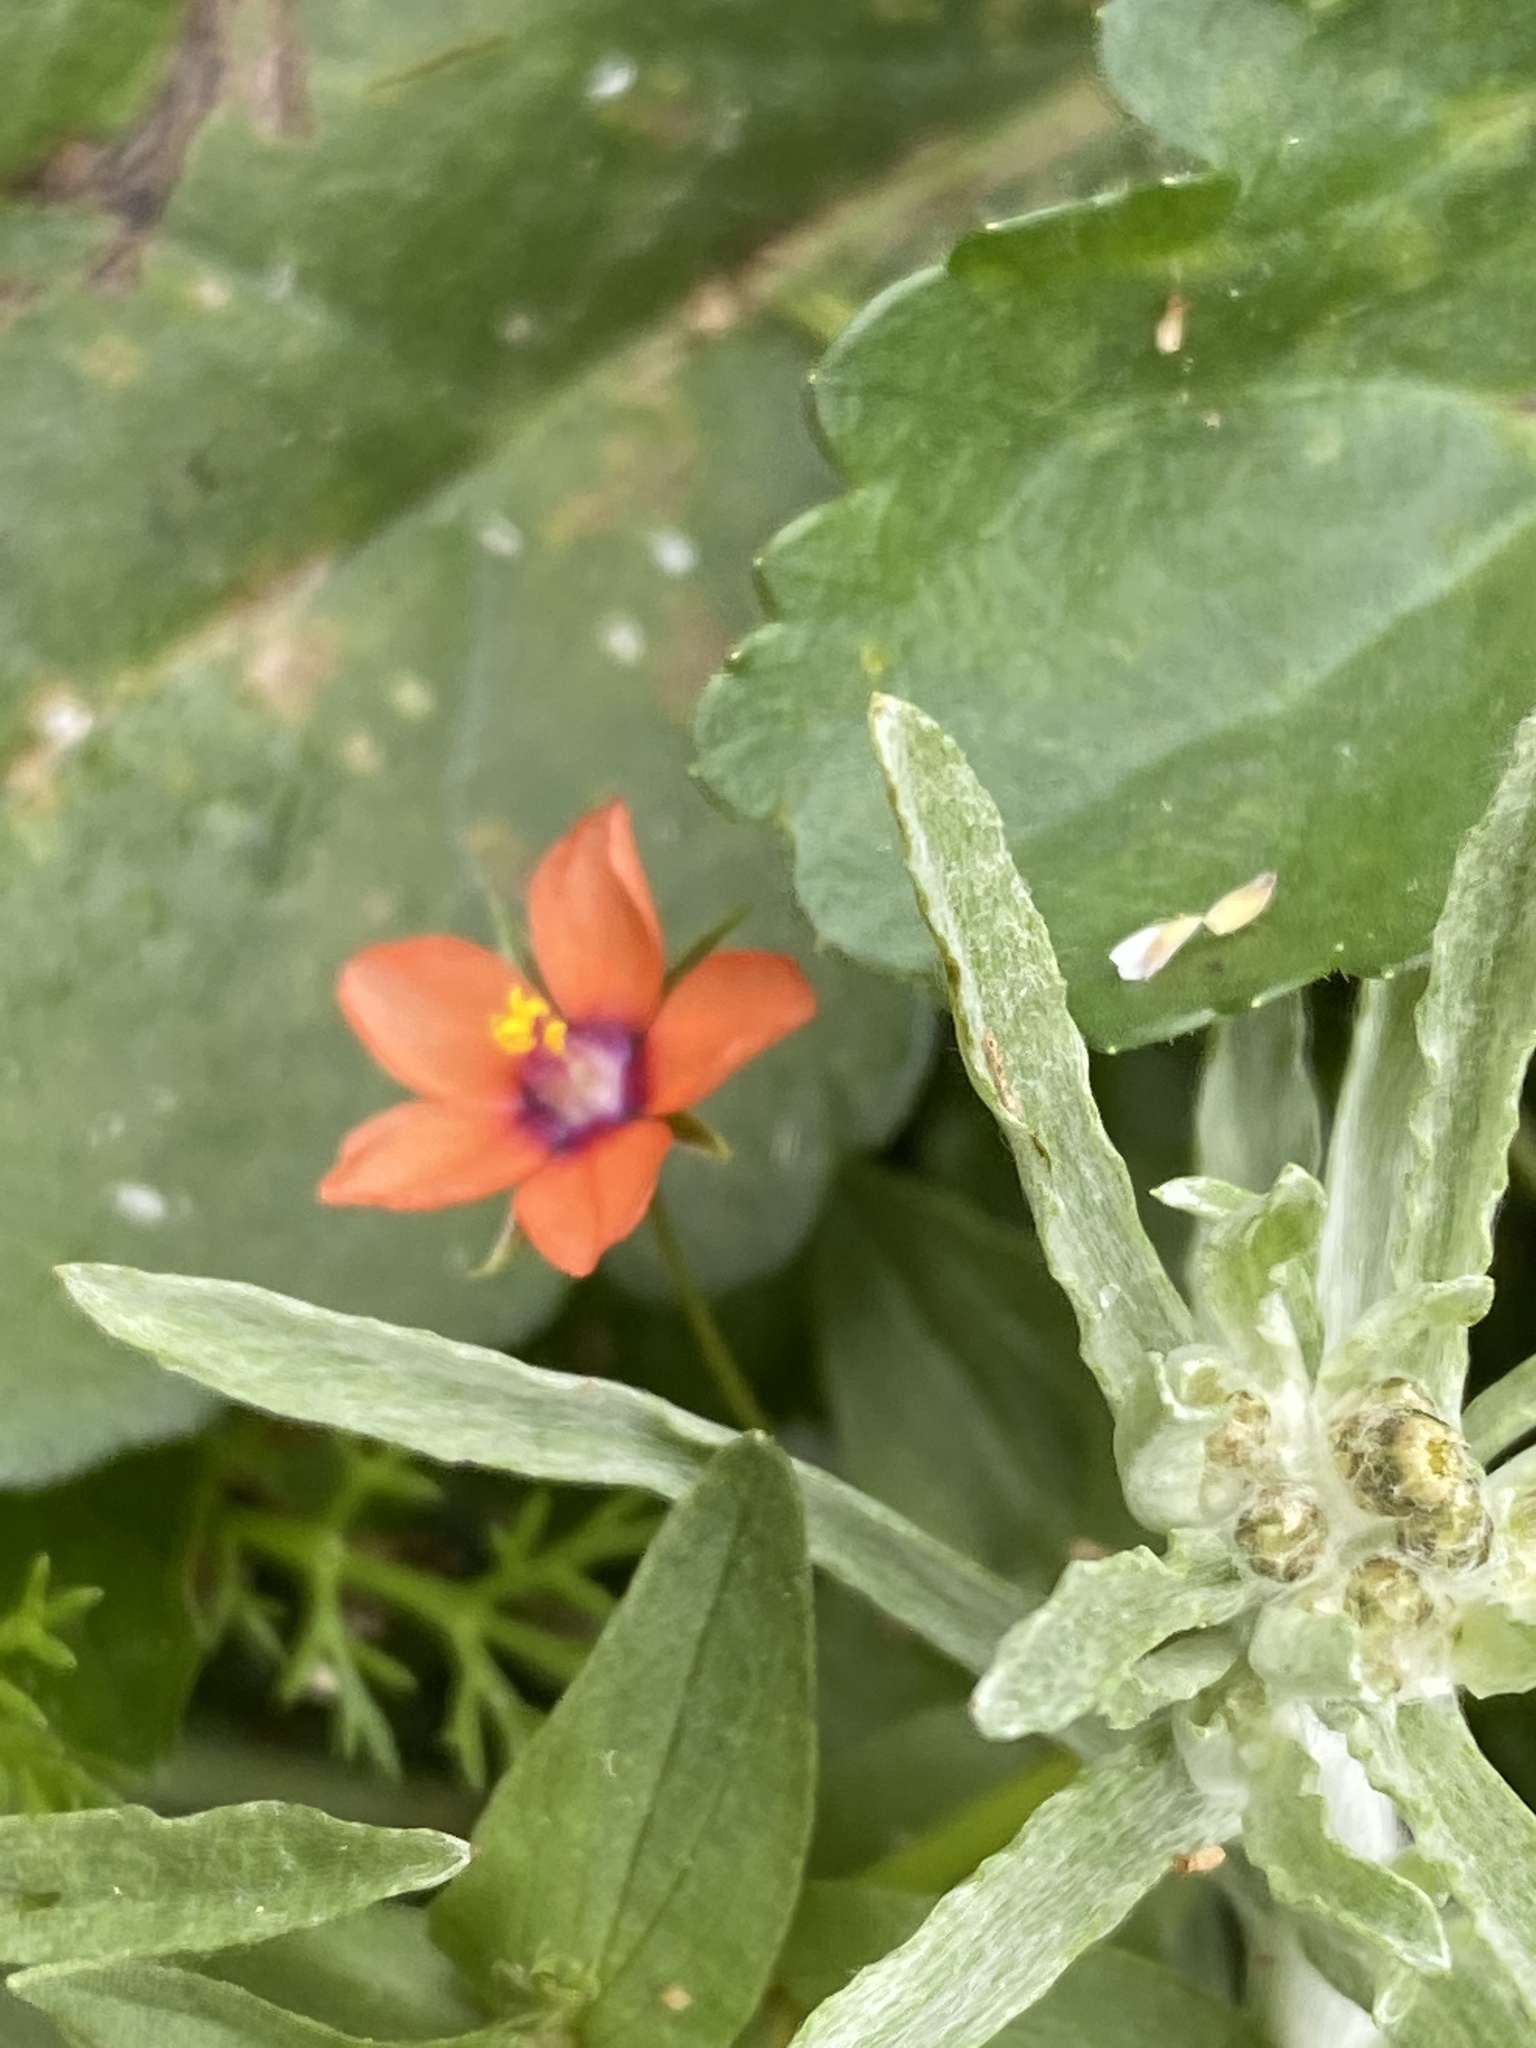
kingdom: Plantae
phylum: Tracheophyta
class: Magnoliopsida
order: Ericales
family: Primulaceae
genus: Lysimachia
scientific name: Lysimachia arvensis
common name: Scarlet pimpernel
